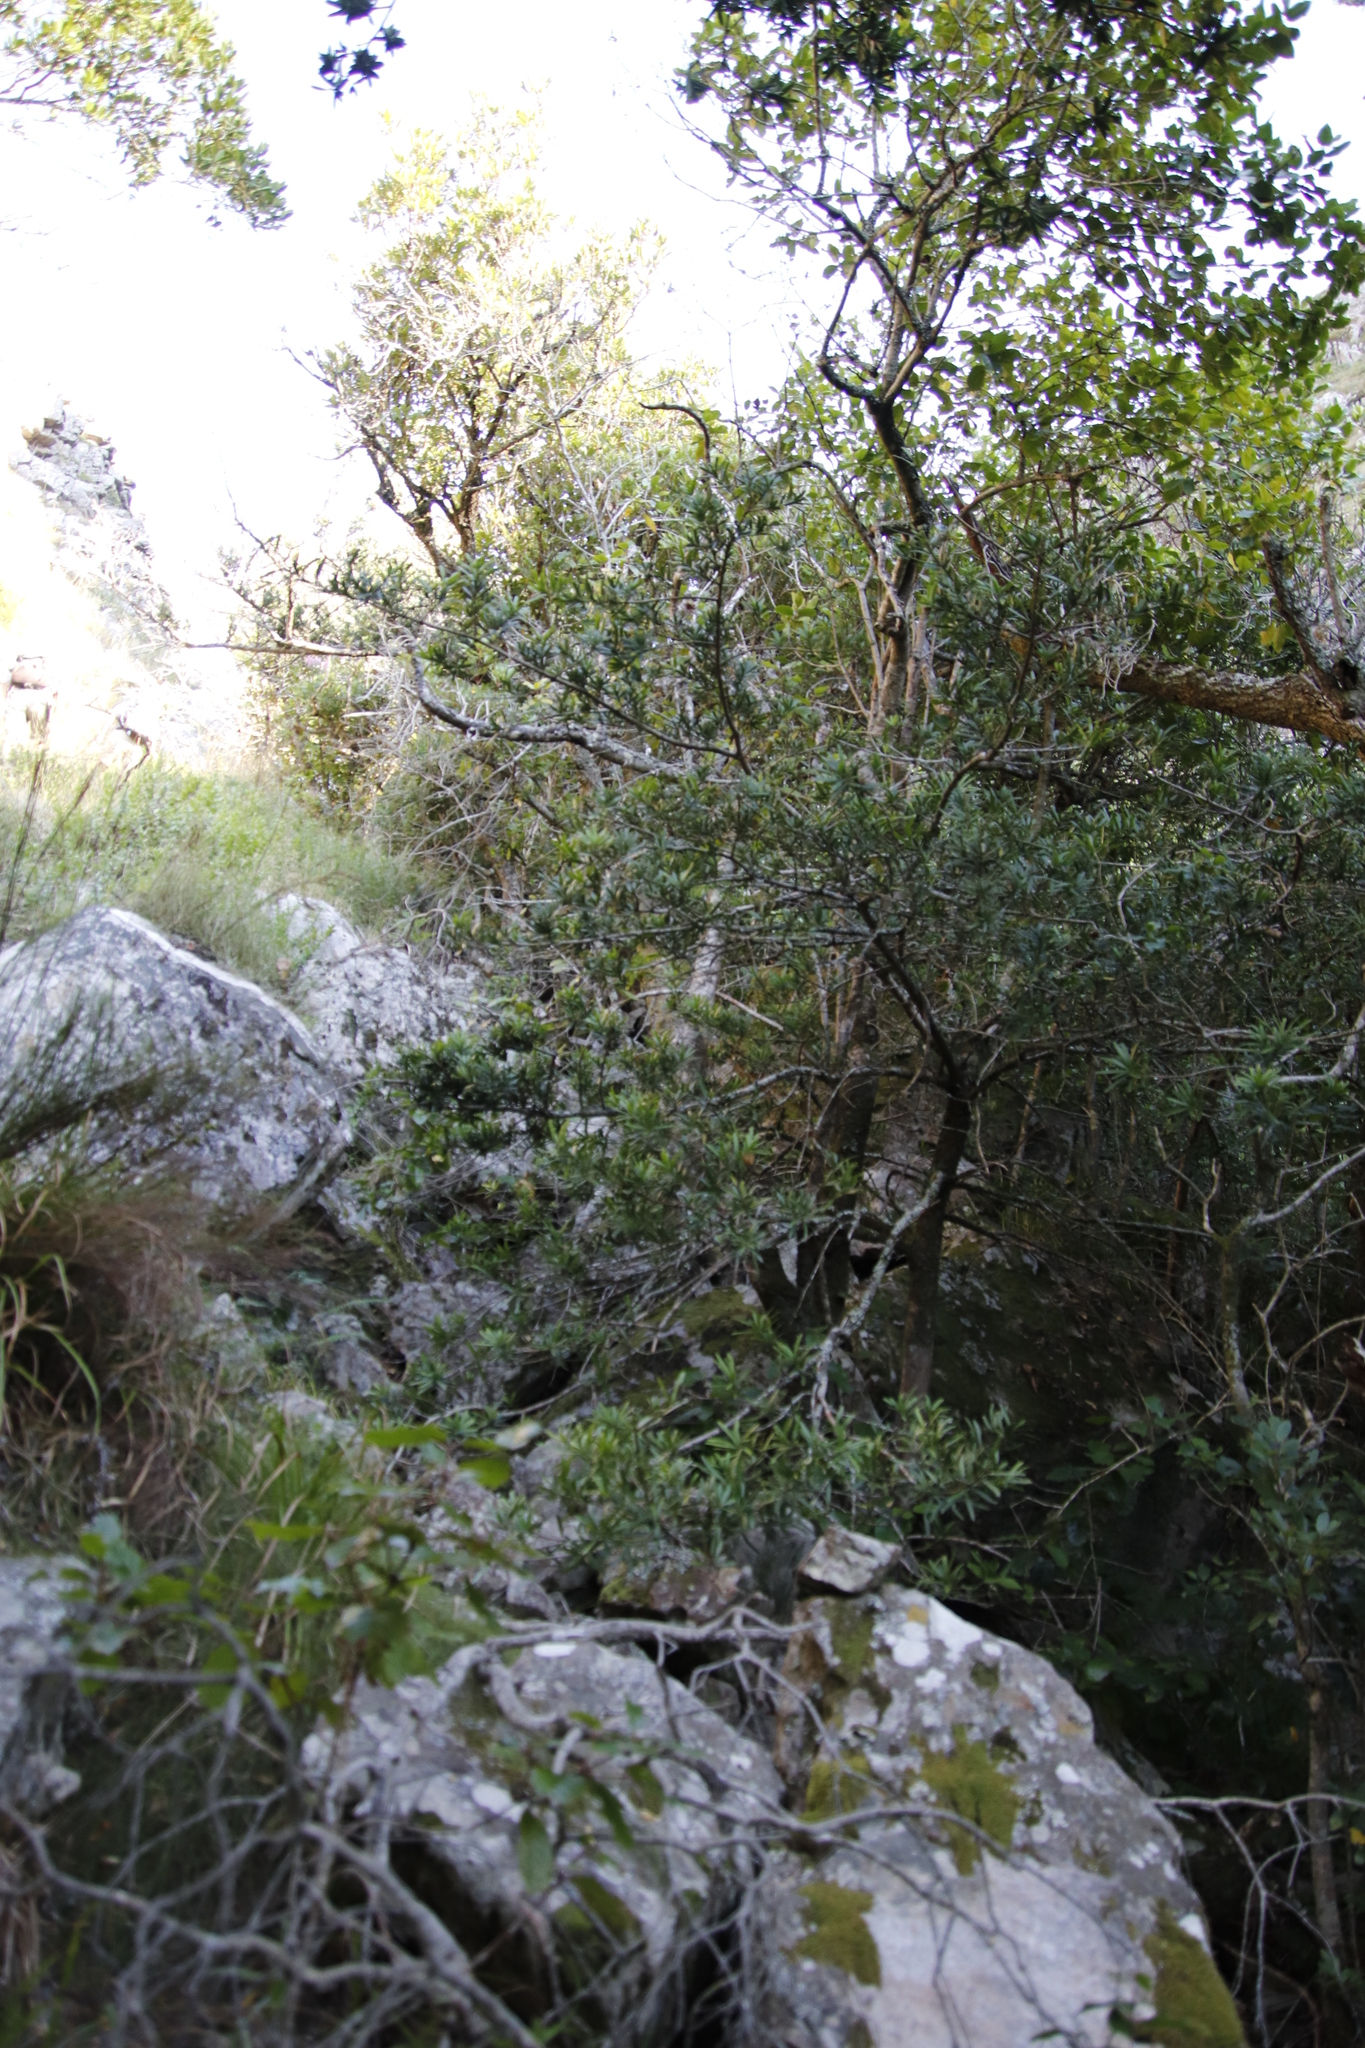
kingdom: Plantae
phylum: Tracheophyta
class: Pinopsida
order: Pinales
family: Podocarpaceae
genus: Podocarpus
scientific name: Podocarpus latifolius
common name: True yellowwood
